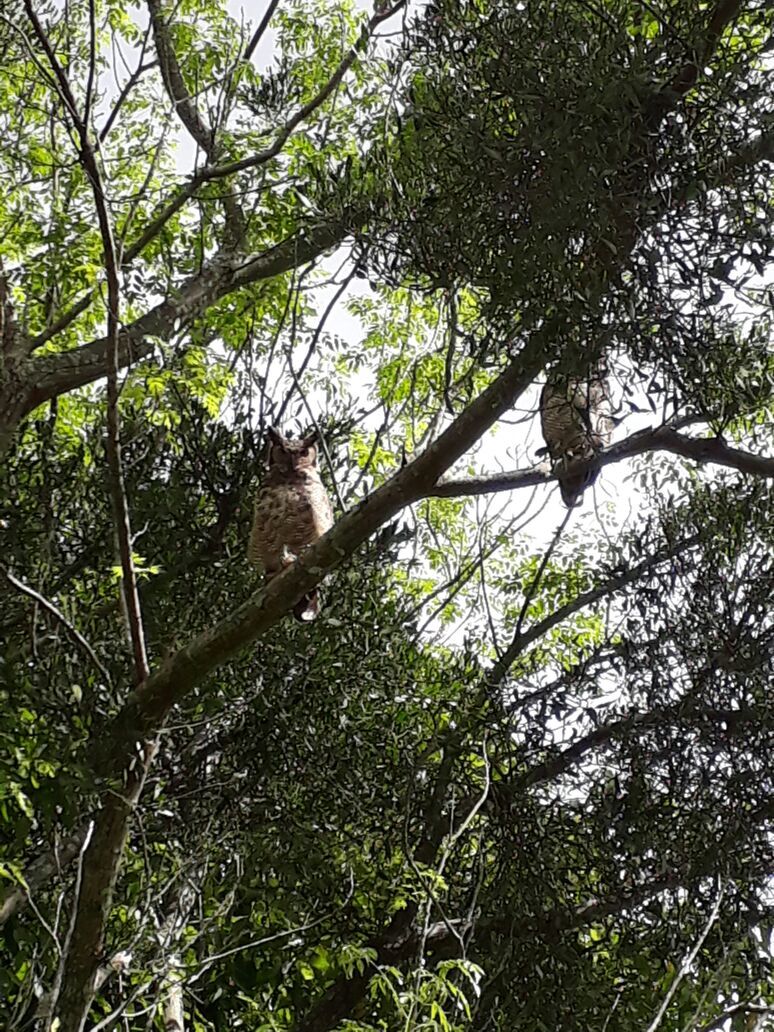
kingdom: Animalia
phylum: Chordata
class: Aves
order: Strigiformes
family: Strigidae
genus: Bubo
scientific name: Bubo virginianus
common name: Great horned owl
